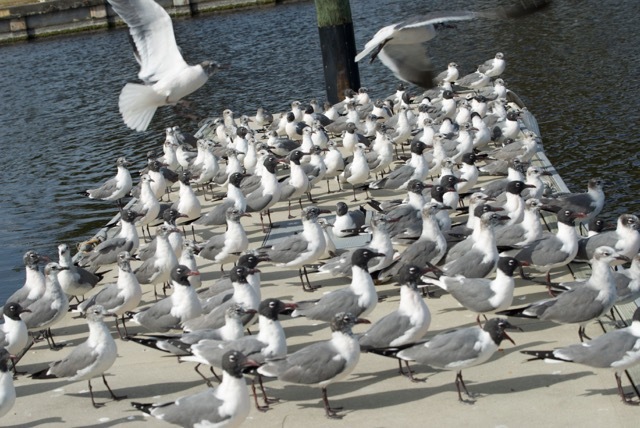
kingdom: Animalia
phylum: Chordata
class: Aves
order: Charadriiformes
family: Laridae
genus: Leucophaeus
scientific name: Leucophaeus atricilla
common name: Laughing gull
